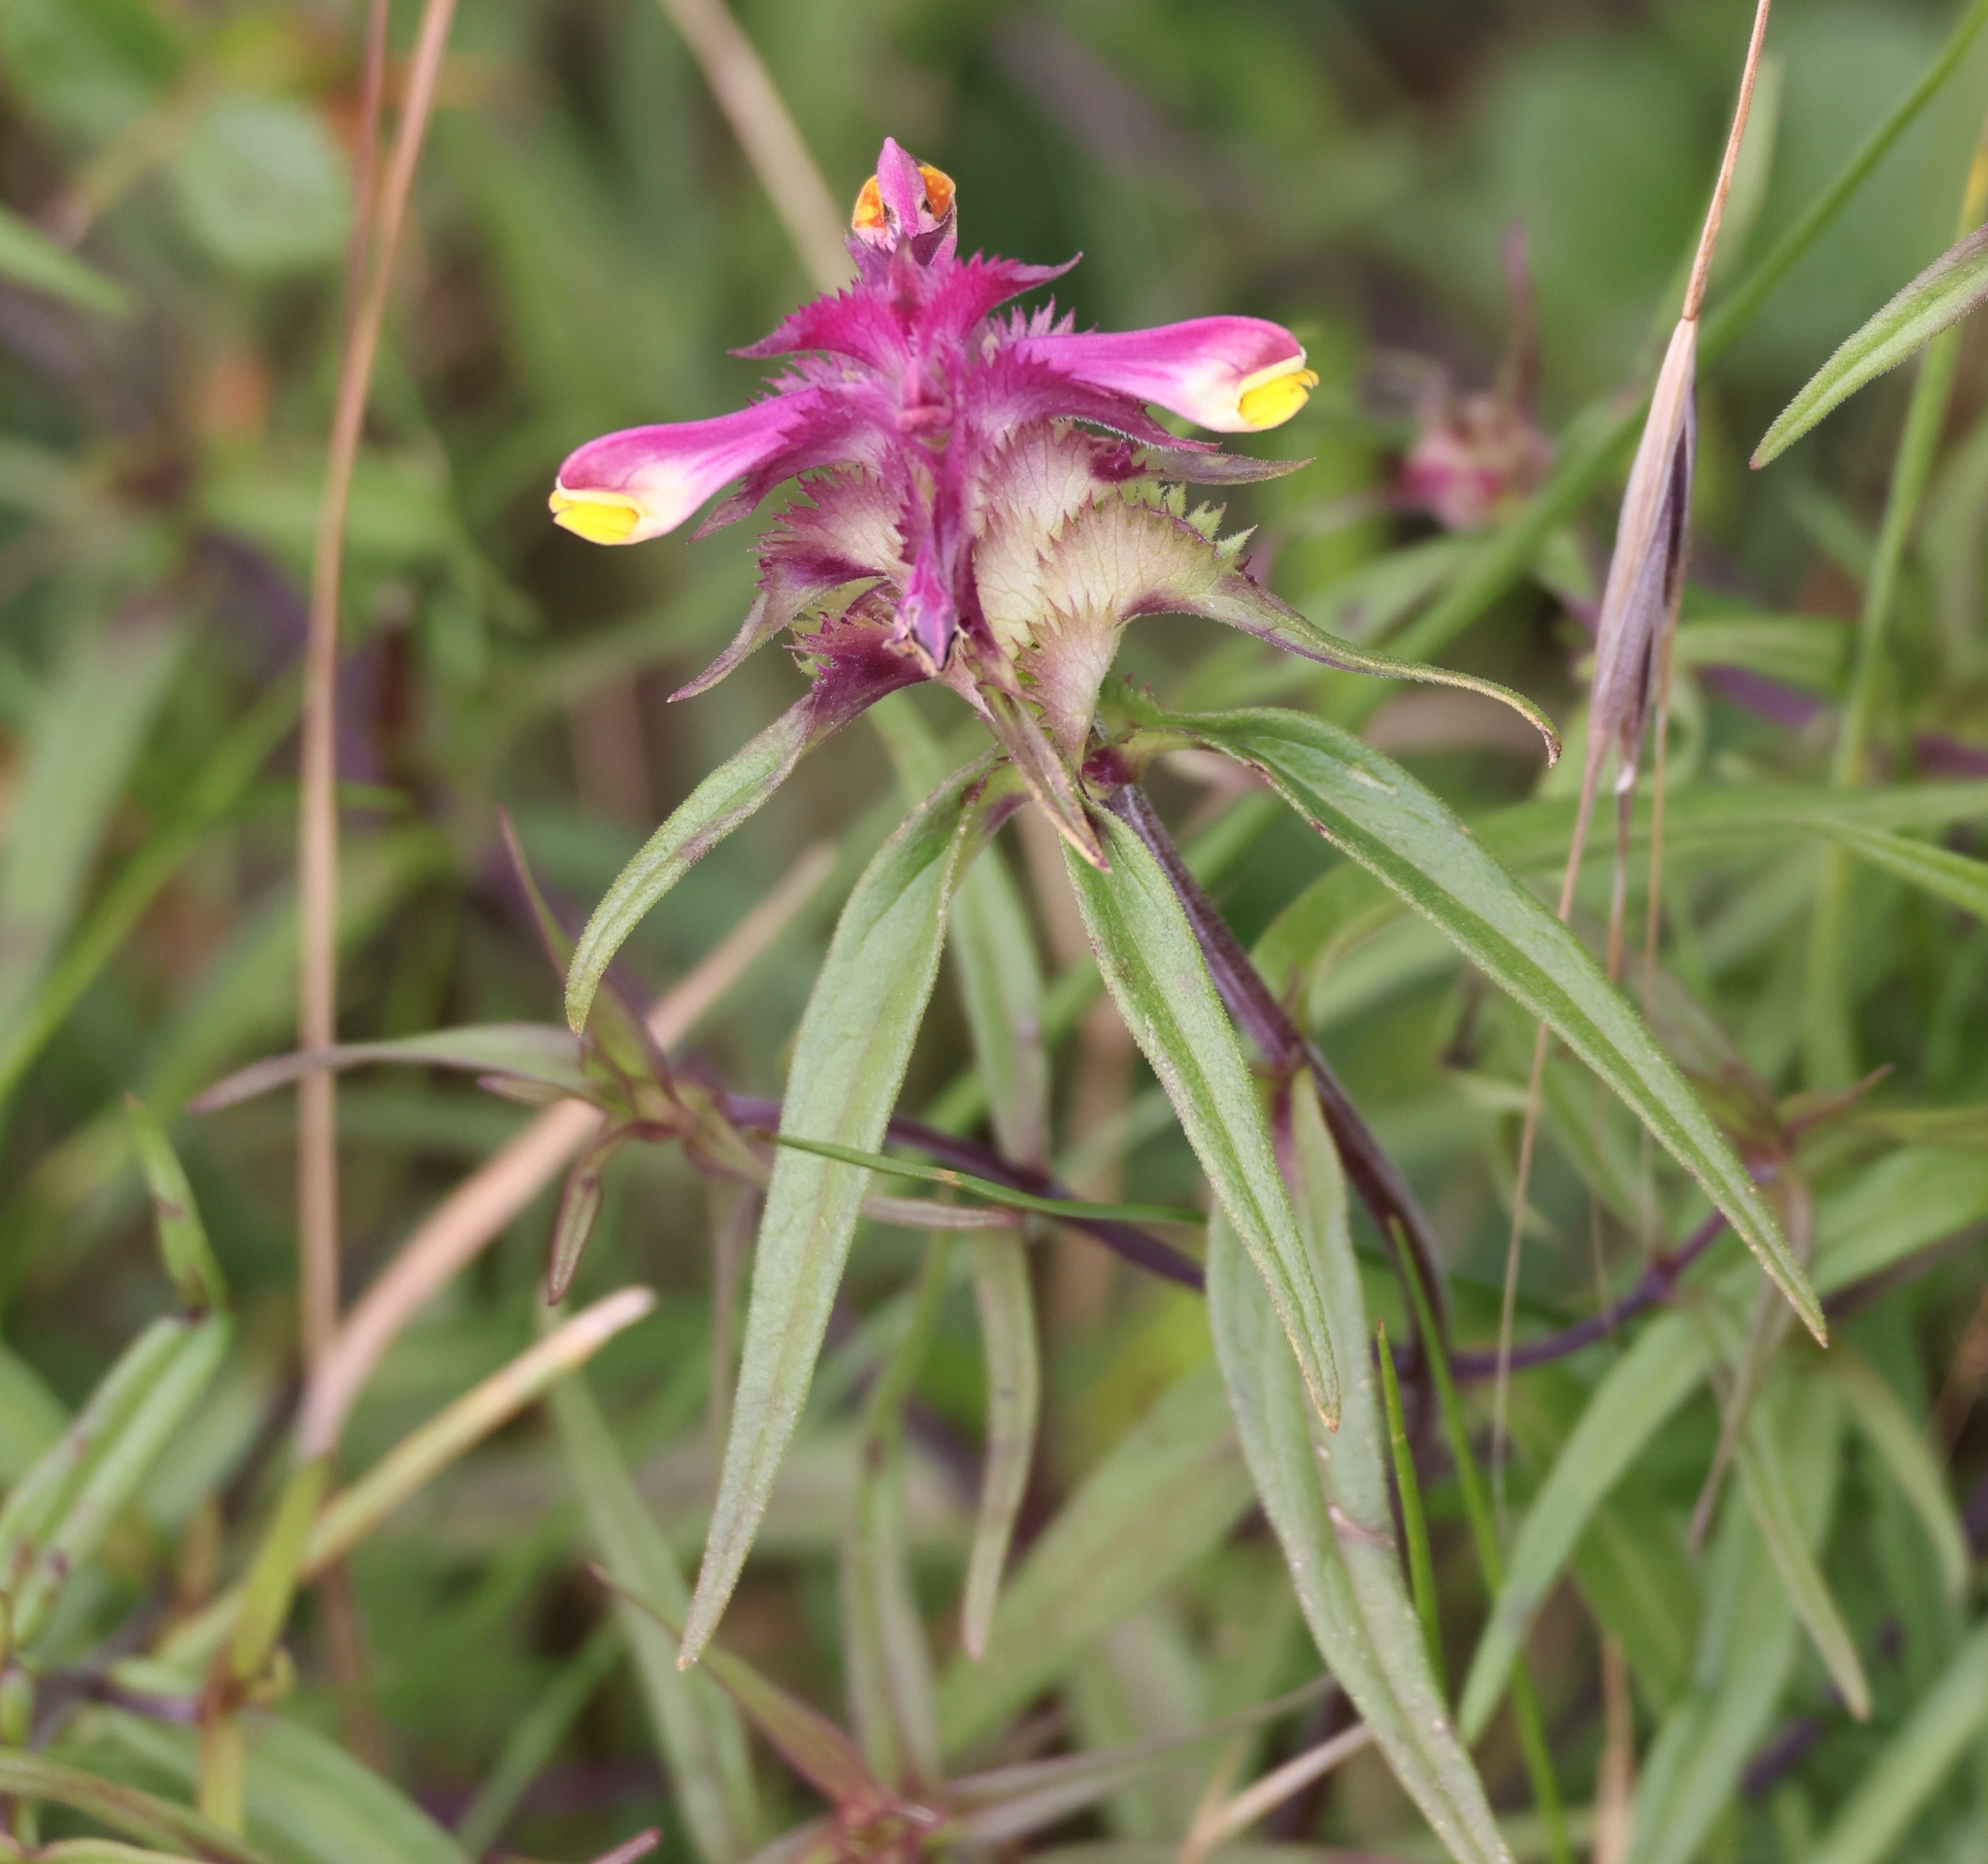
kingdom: Plantae
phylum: Tracheophyta
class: Magnoliopsida
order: Lamiales
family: Orobanchaceae
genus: Melampyrum
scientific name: Melampyrum cristatum
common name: Crested cow-wheat
